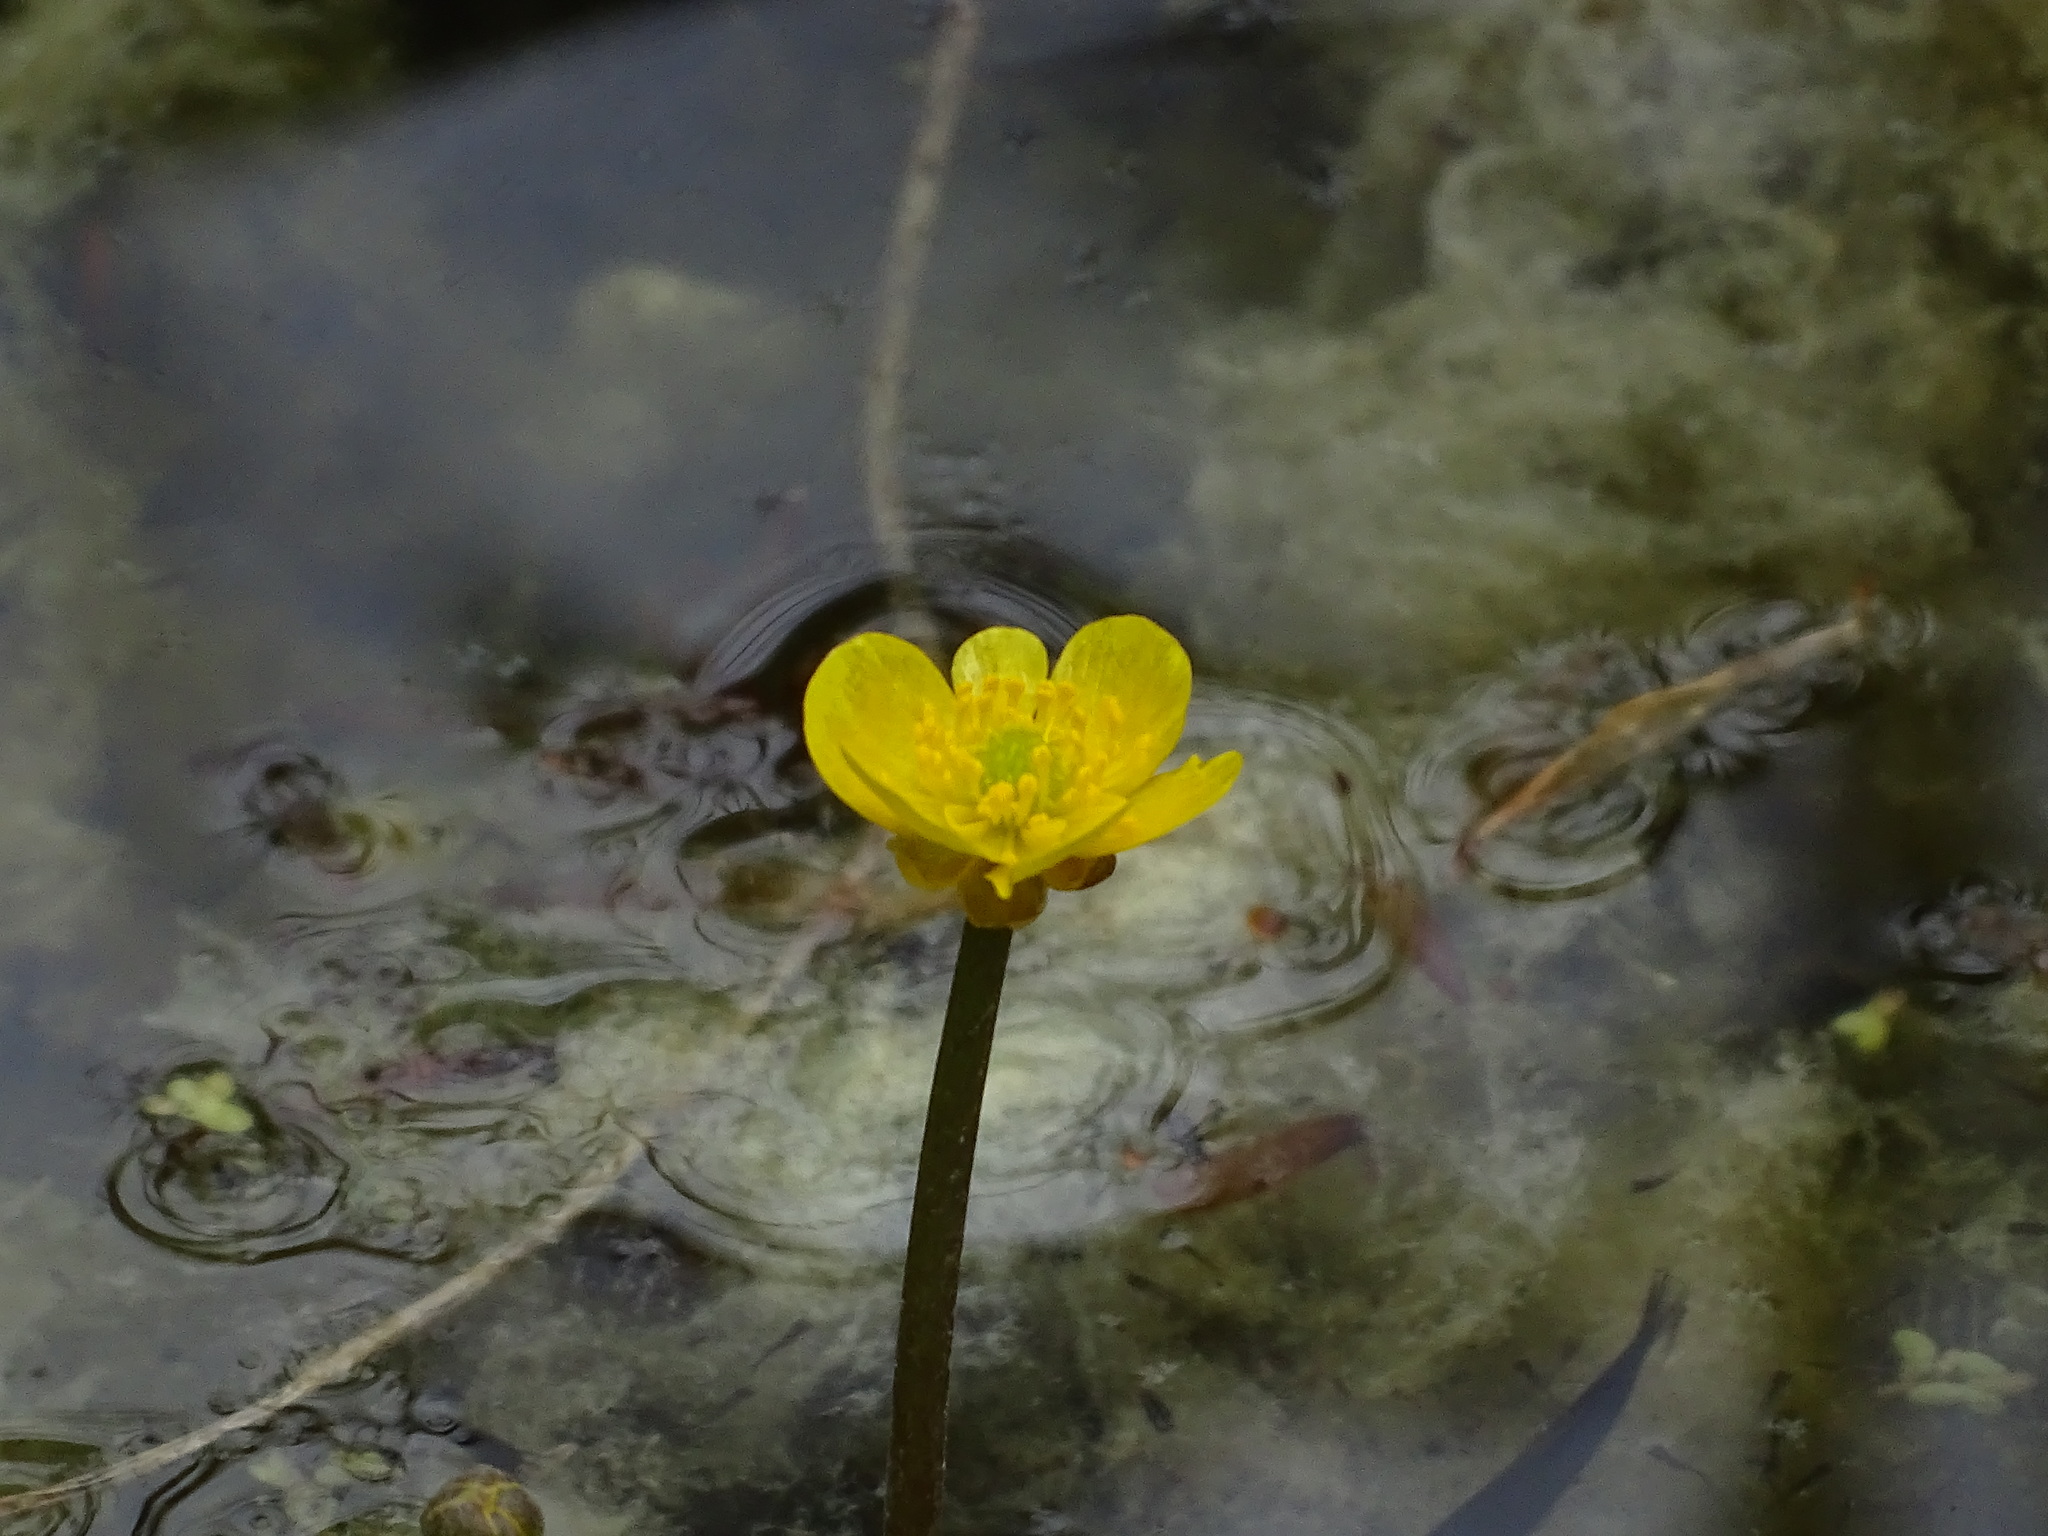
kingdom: Plantae
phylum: Tracheophyta
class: Magnoliopsida
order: Ranunculales
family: Ranunculaceae
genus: Ranunculus
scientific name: Ranunculus flabellaris
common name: Yellow water-crowfoot
